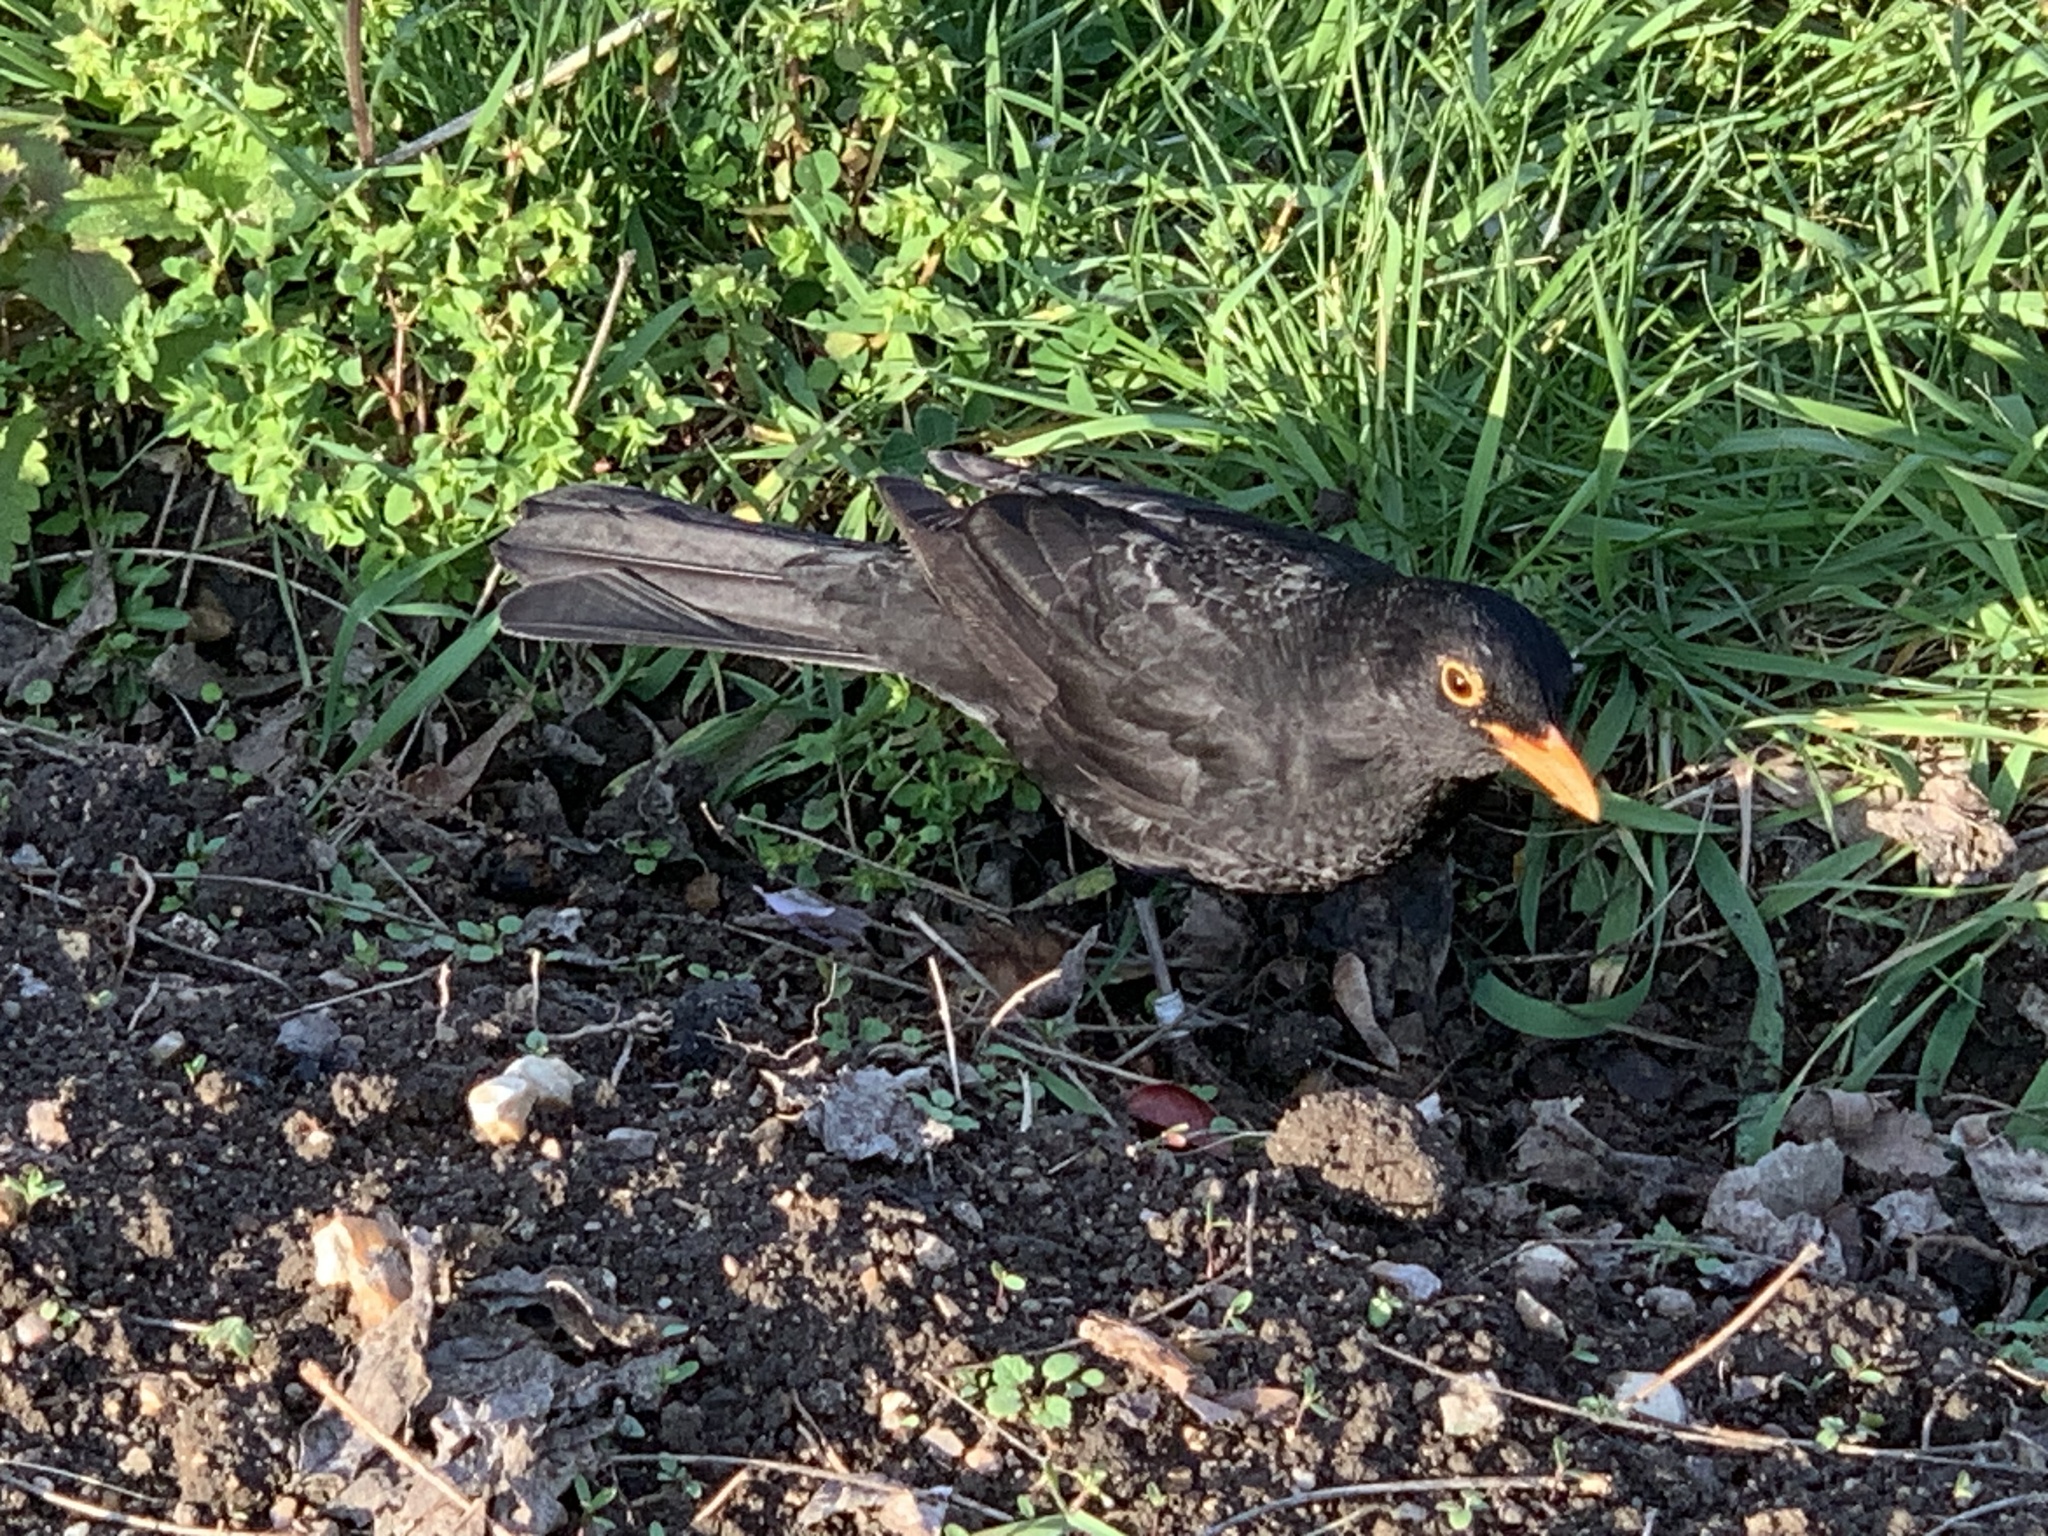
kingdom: Animalia
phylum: Chordata
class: Aves
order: Passeriformes
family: Turdidae
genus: Turdus
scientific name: Turdus merula
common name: Common blackbird
